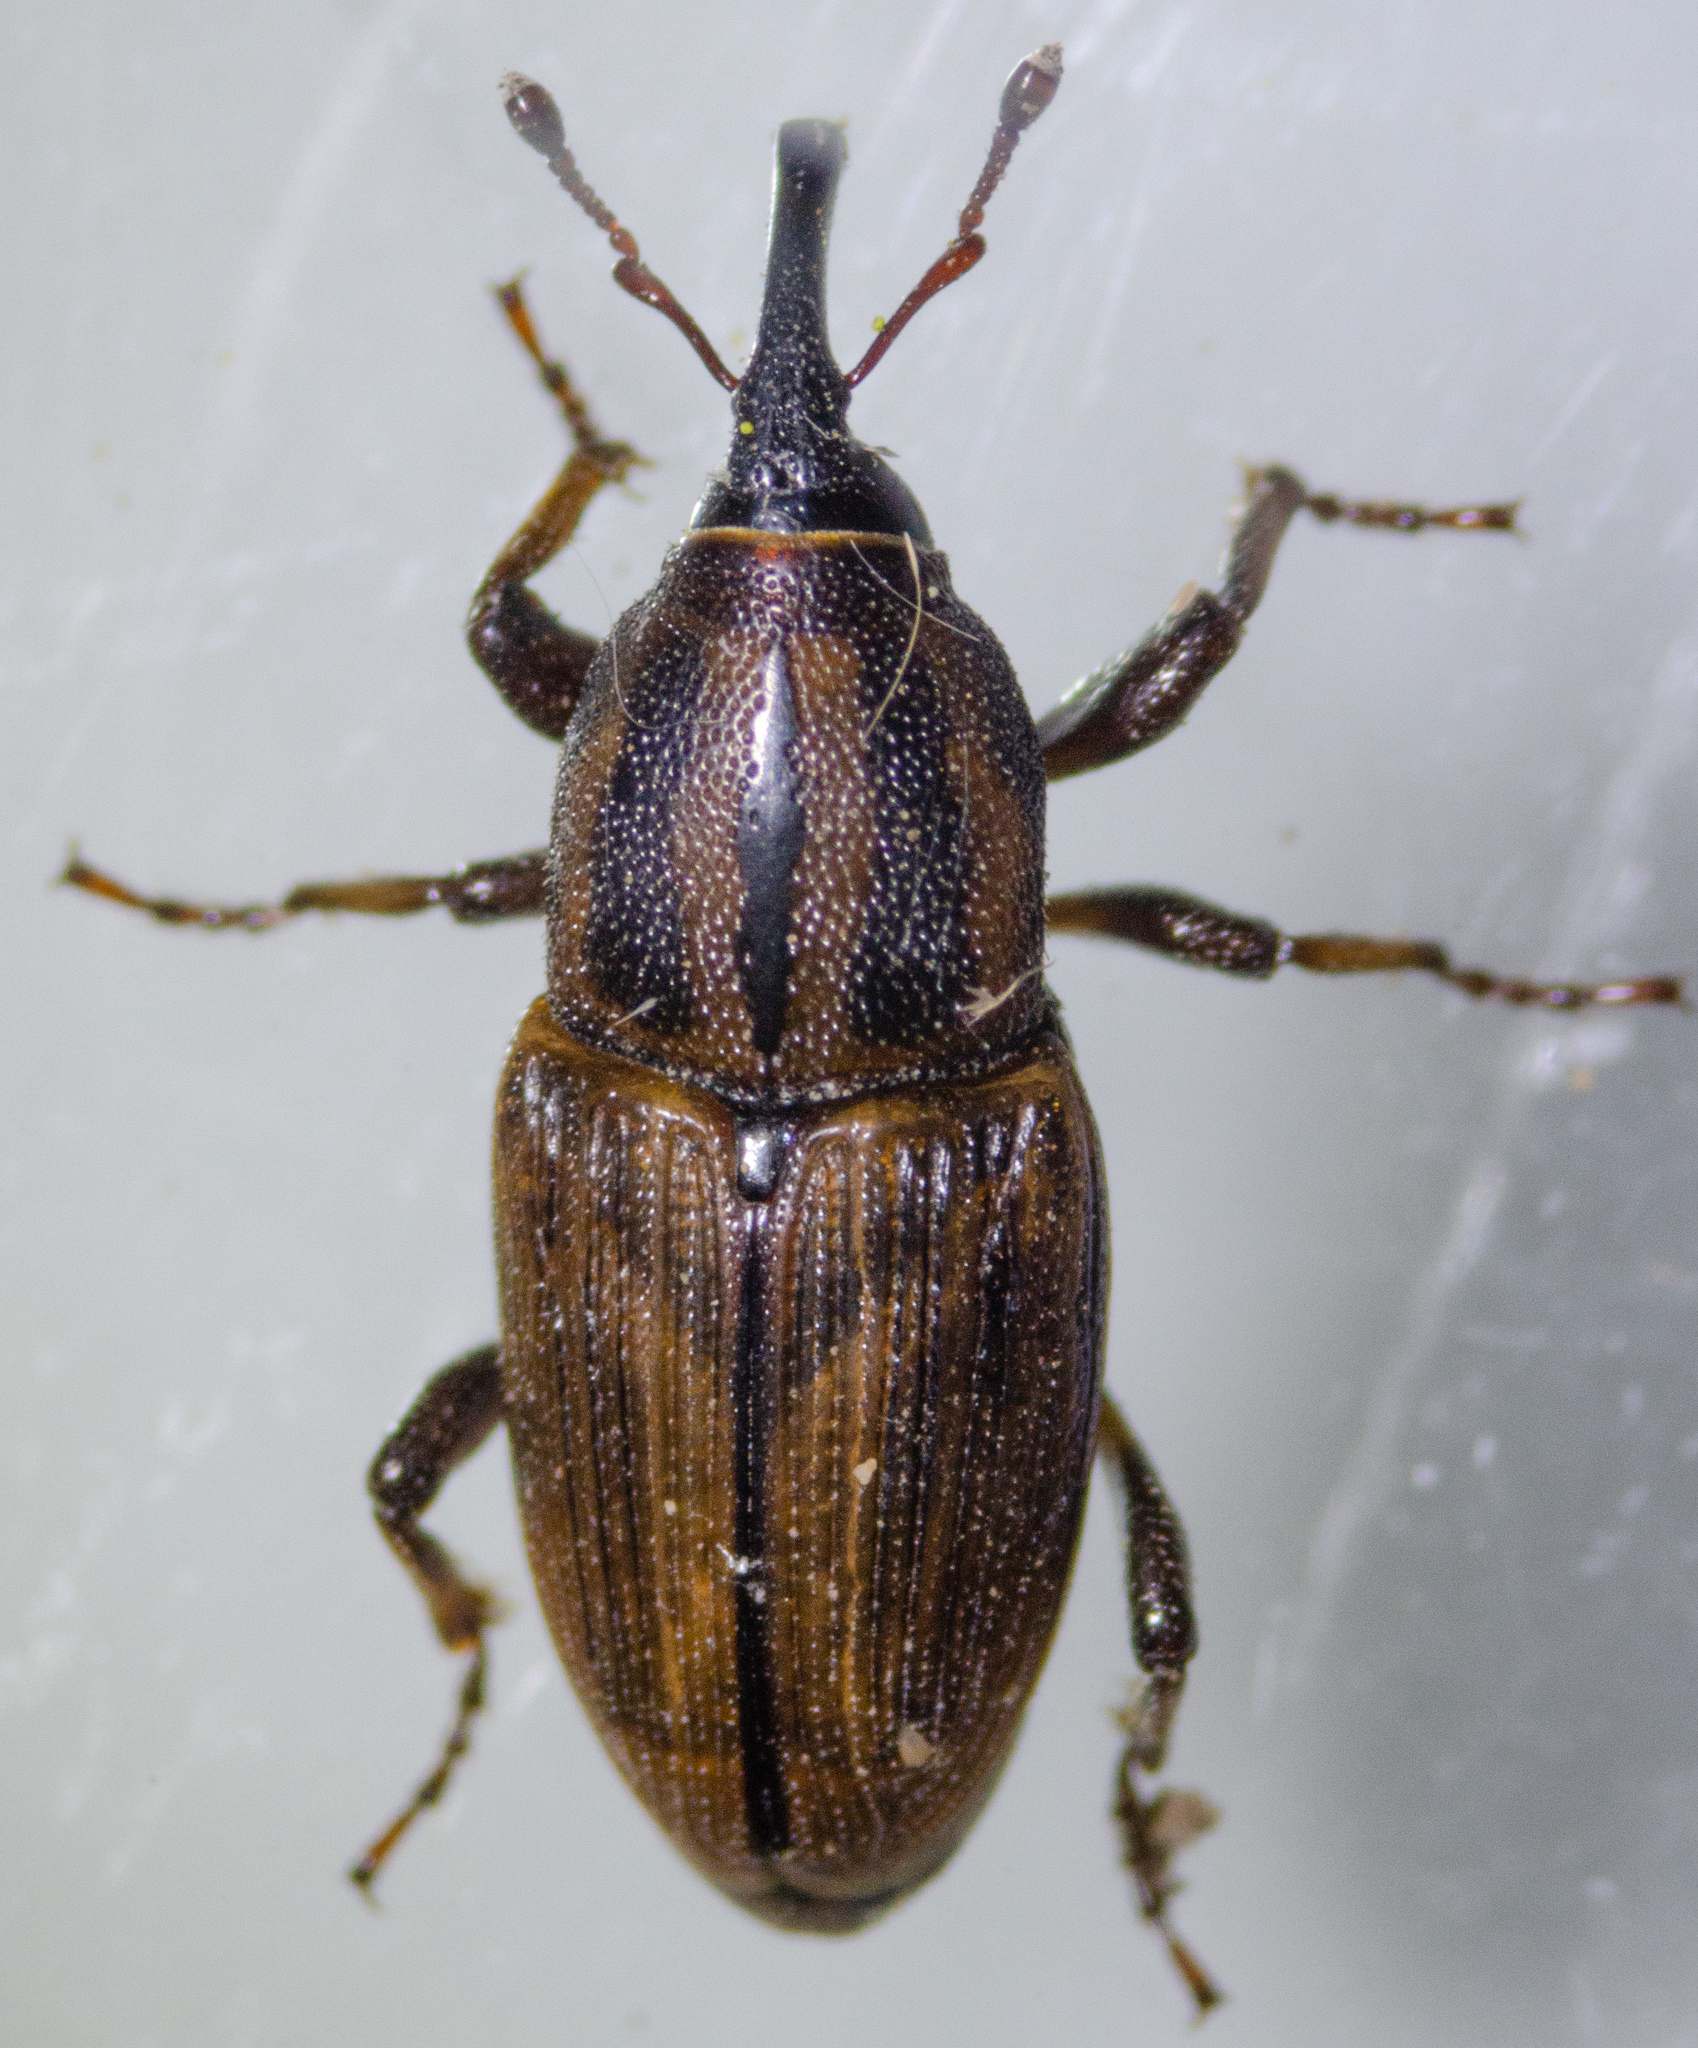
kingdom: Animalia
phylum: Arthropoda
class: Insecta
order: Coleoptera
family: Dryophthoridae
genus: Sphenophorus
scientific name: Sphenophorus gentilis
